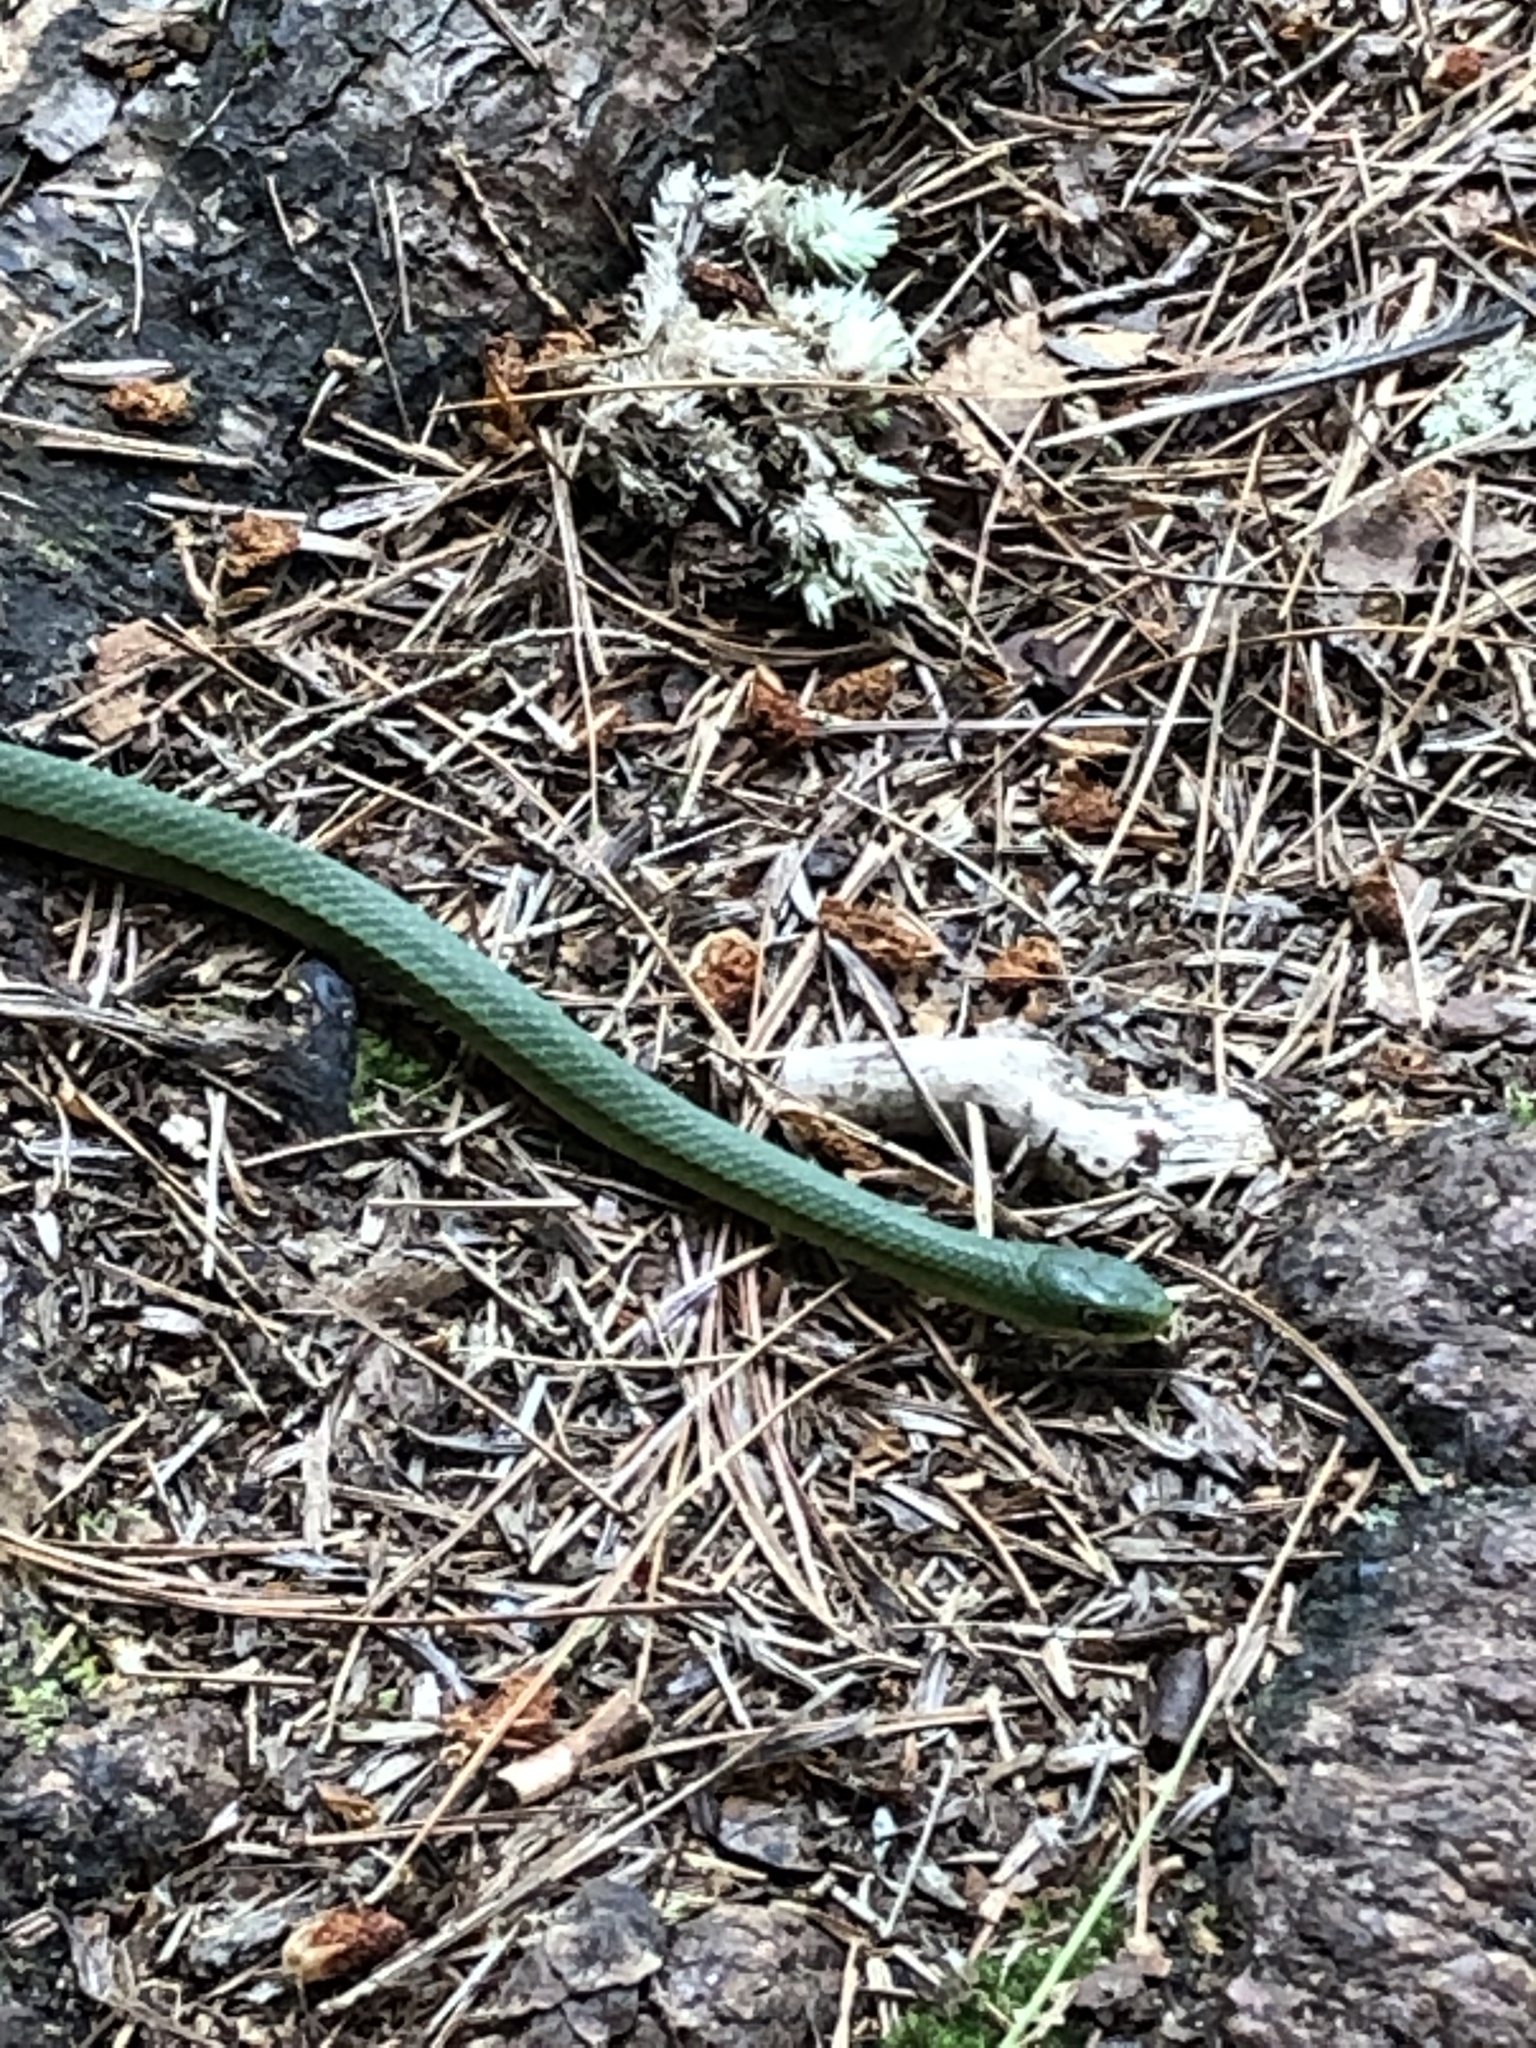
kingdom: Animalia
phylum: Chordata
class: Squamata
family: Colubridae
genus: Opheodrys
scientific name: Opheodrys vernalis
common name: Smooth green snake
